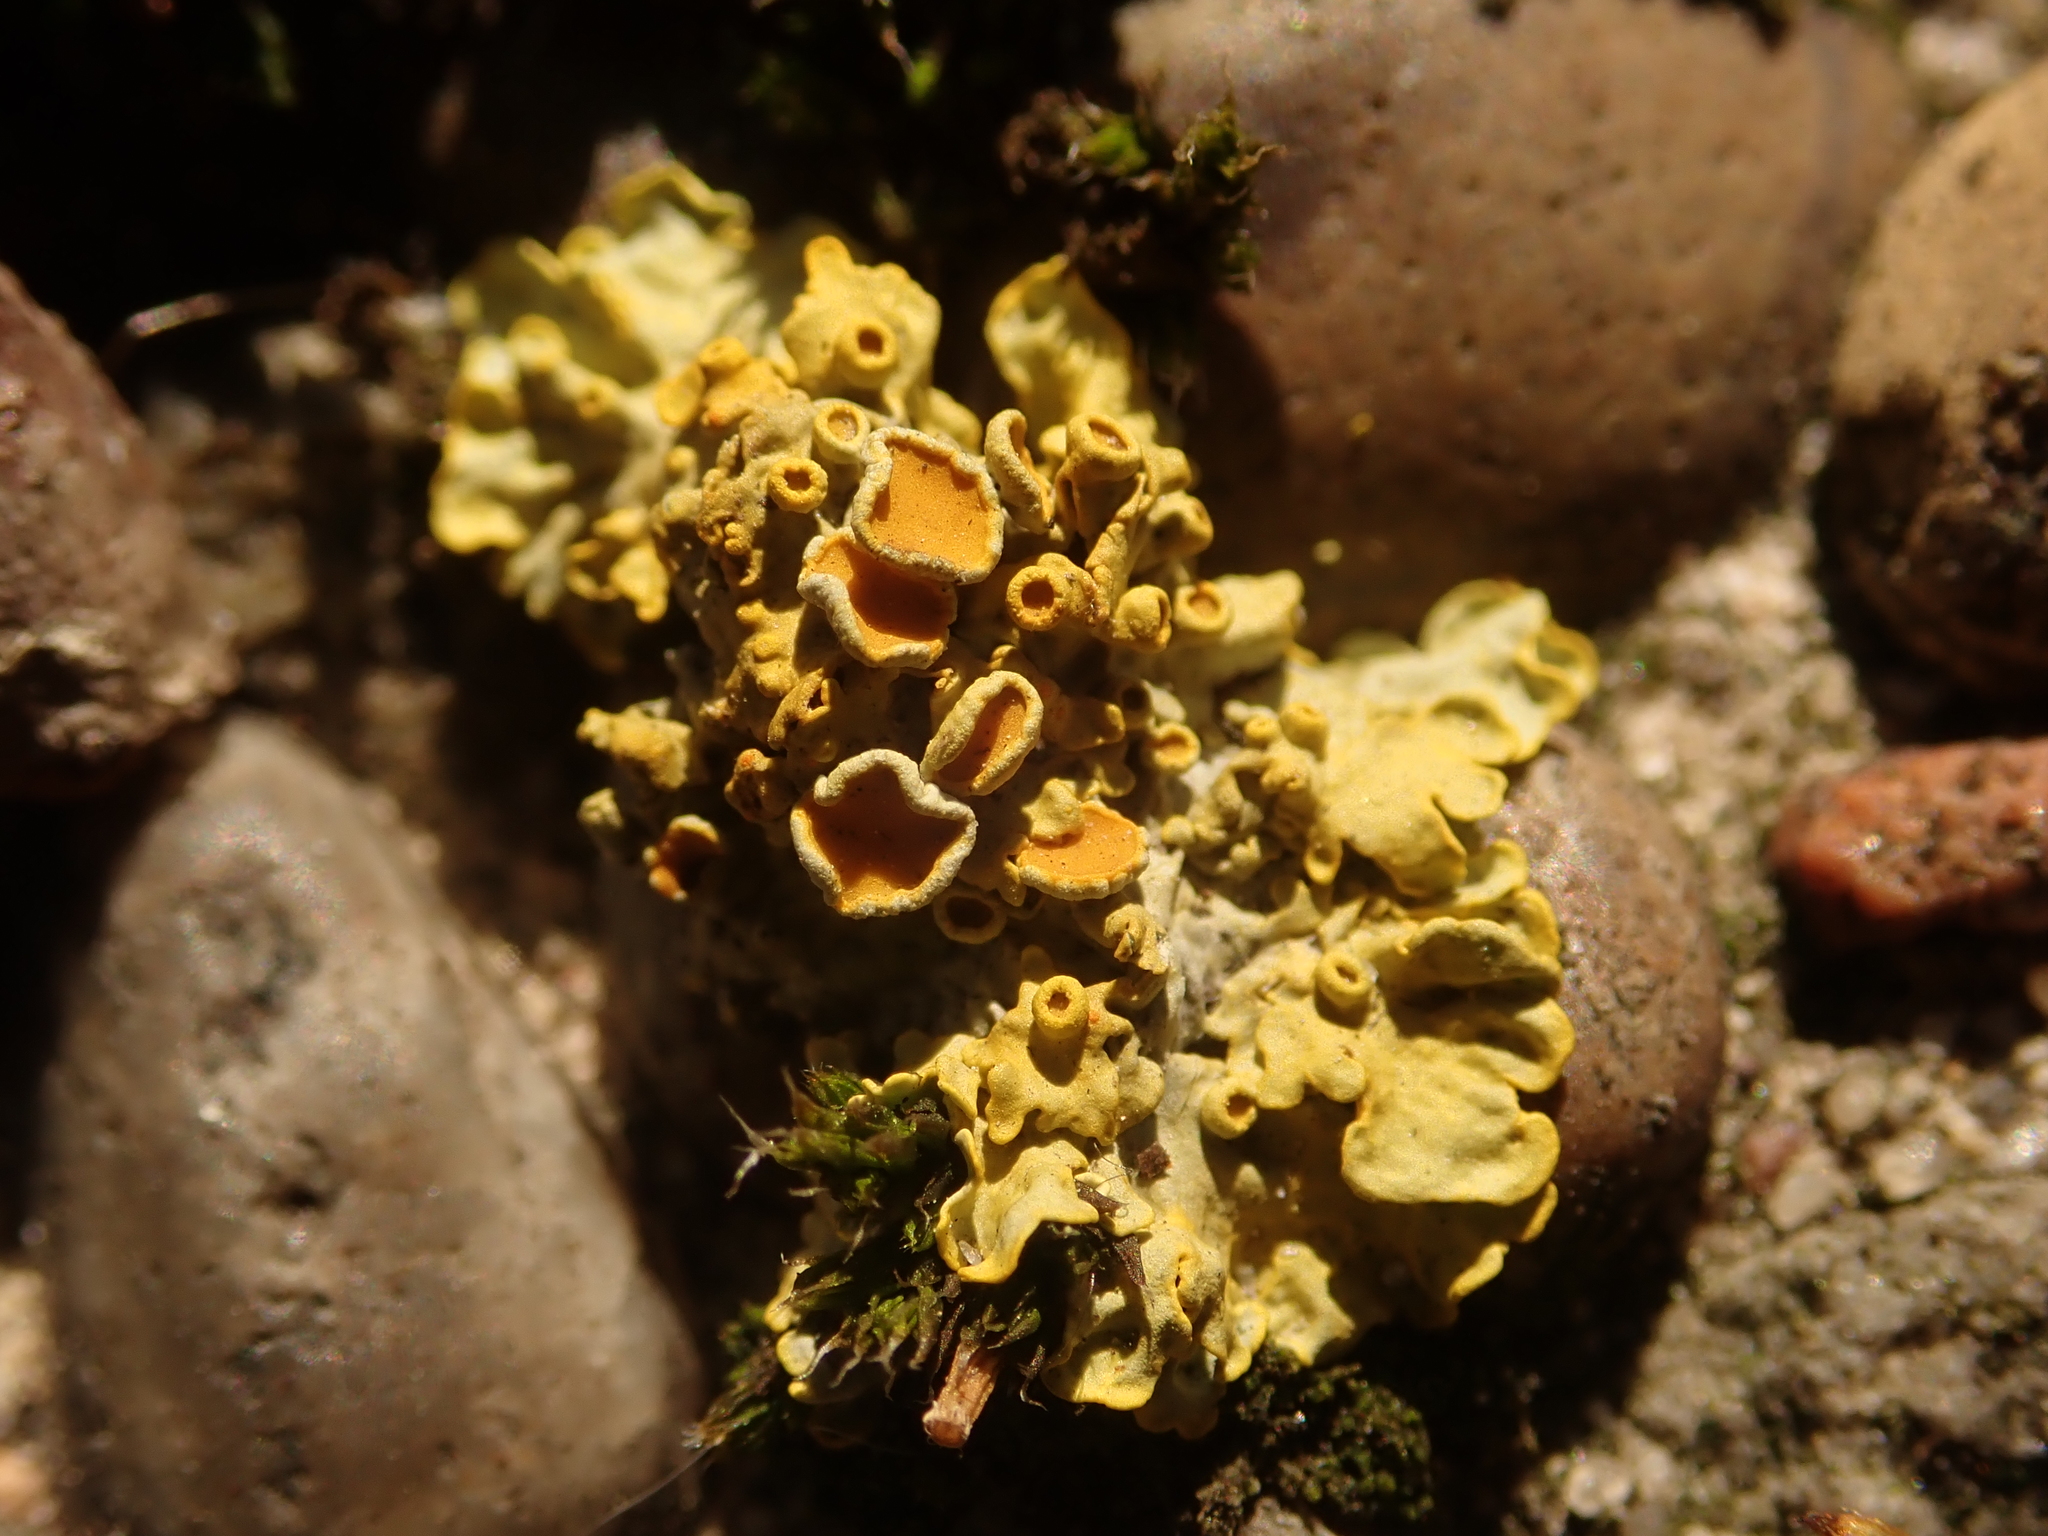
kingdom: Fungi
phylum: Ascomycota
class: Lecanoromycetes
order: Teloschistales
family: Teloschistaceae
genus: Xanthoria
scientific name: Xanthoria parietina
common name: Common orange lichen
